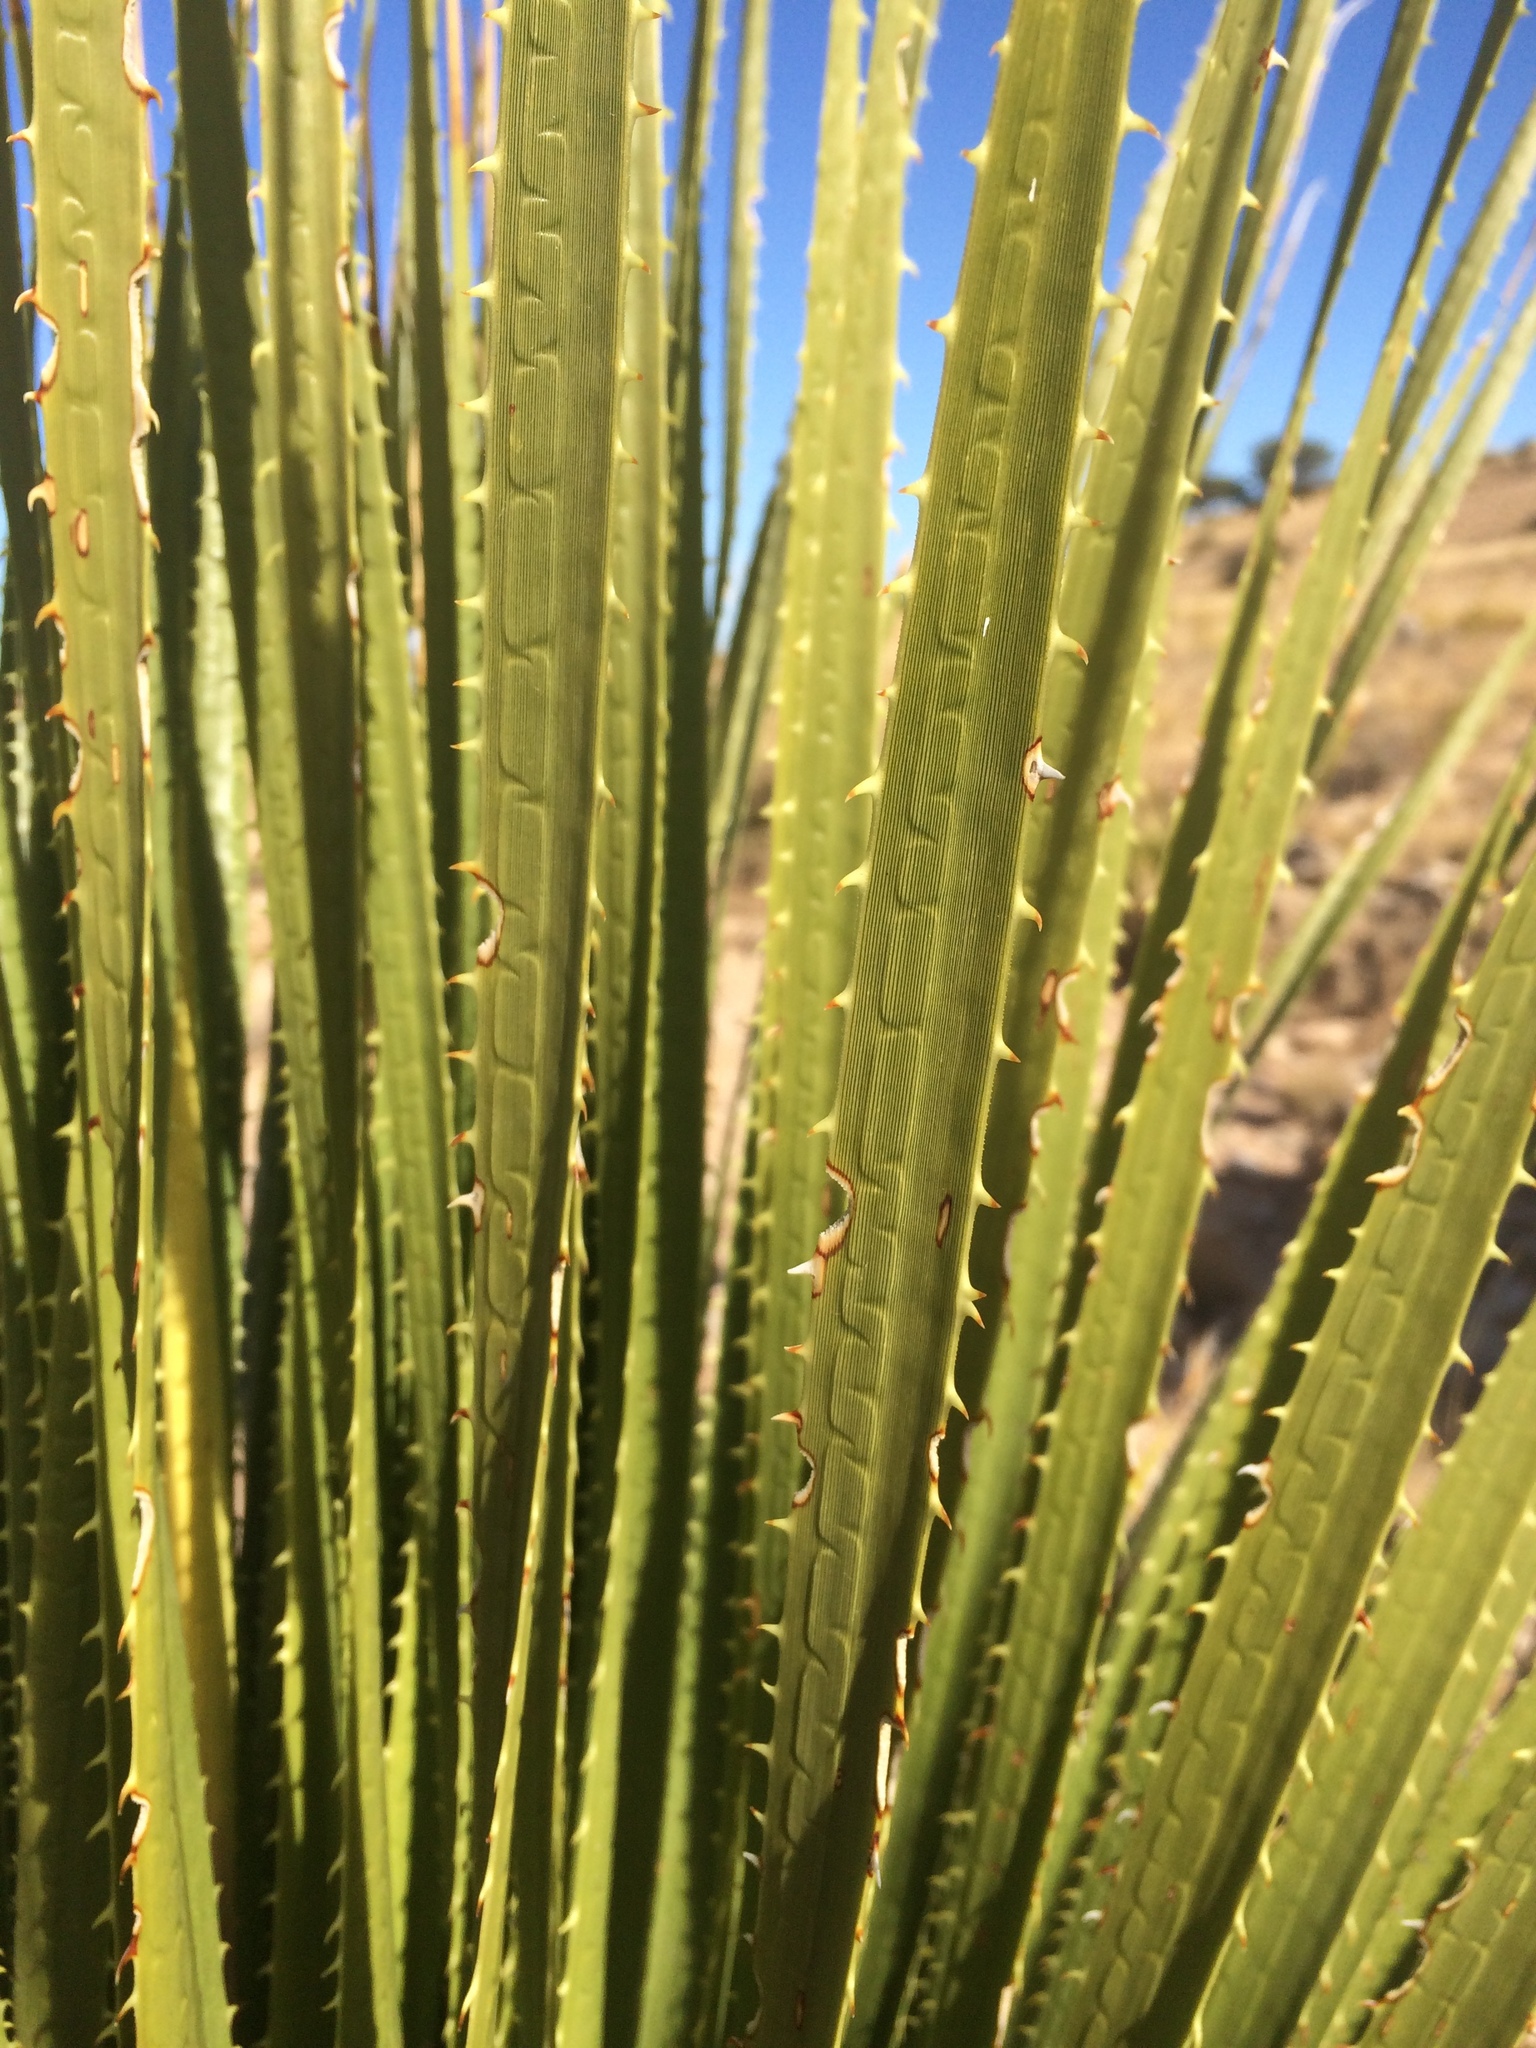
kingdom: Plantae
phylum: Tracheophyta
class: Liliopsida
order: Asparagales
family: Asparagaceae
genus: Dasylirion
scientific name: Dasylirion leiophyllum
